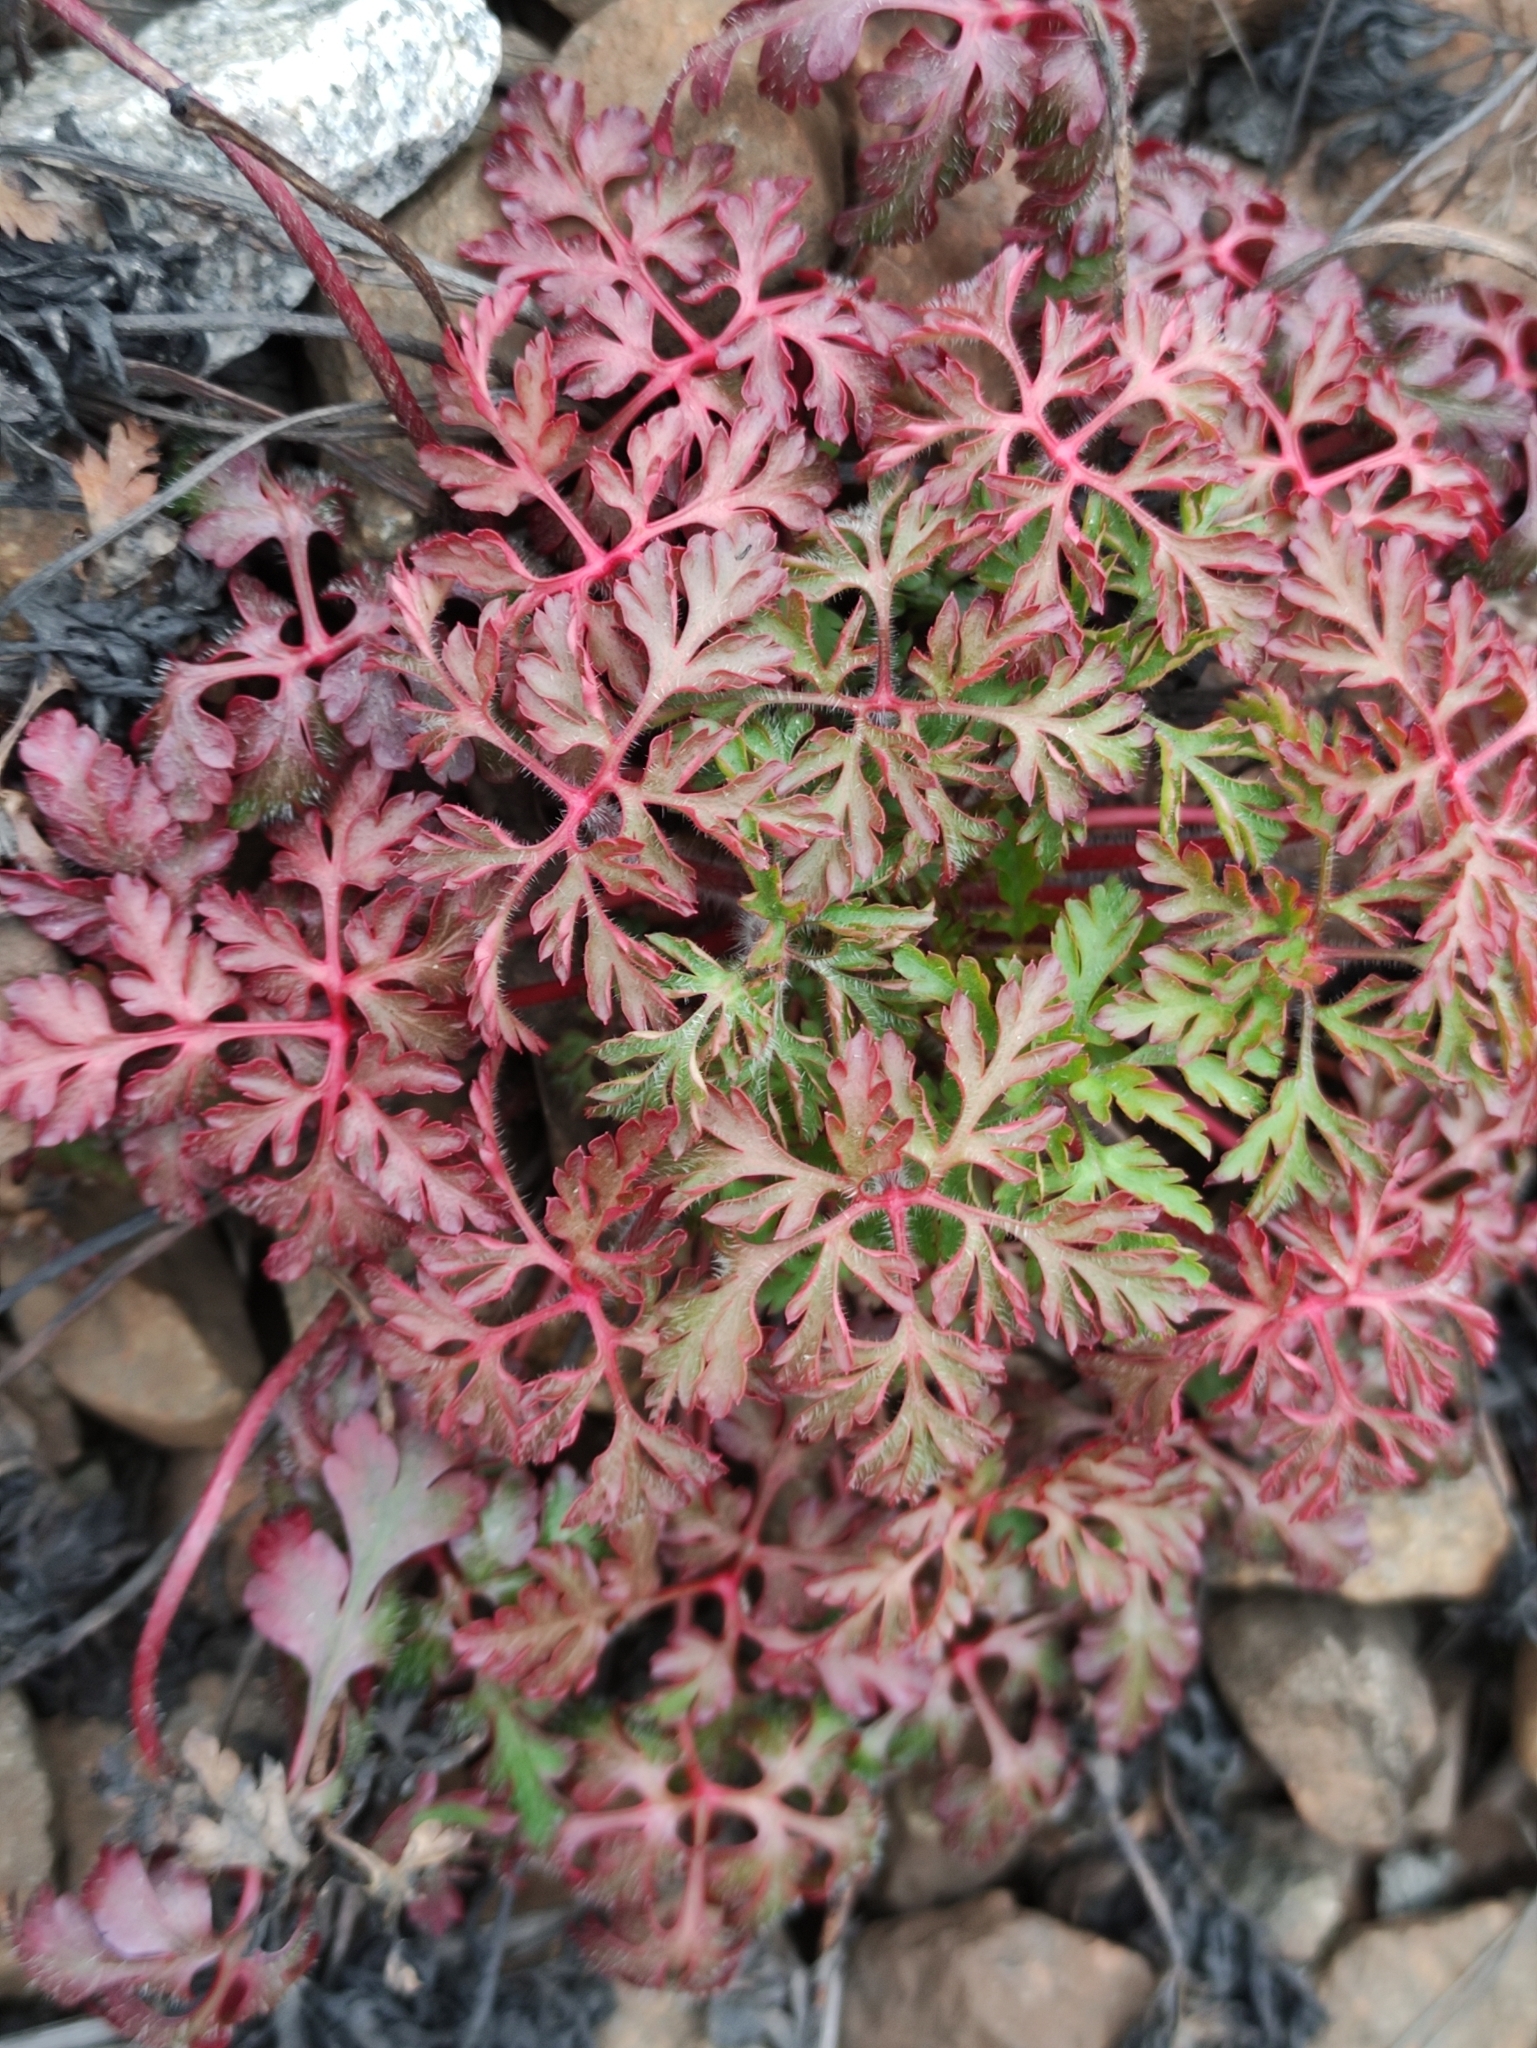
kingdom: Plantae
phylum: Tracheophyta
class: Magnoliopsida
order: Geraniales
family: Geraniaceae
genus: Geranium
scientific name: Geranium robertianum
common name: Herb-robert
